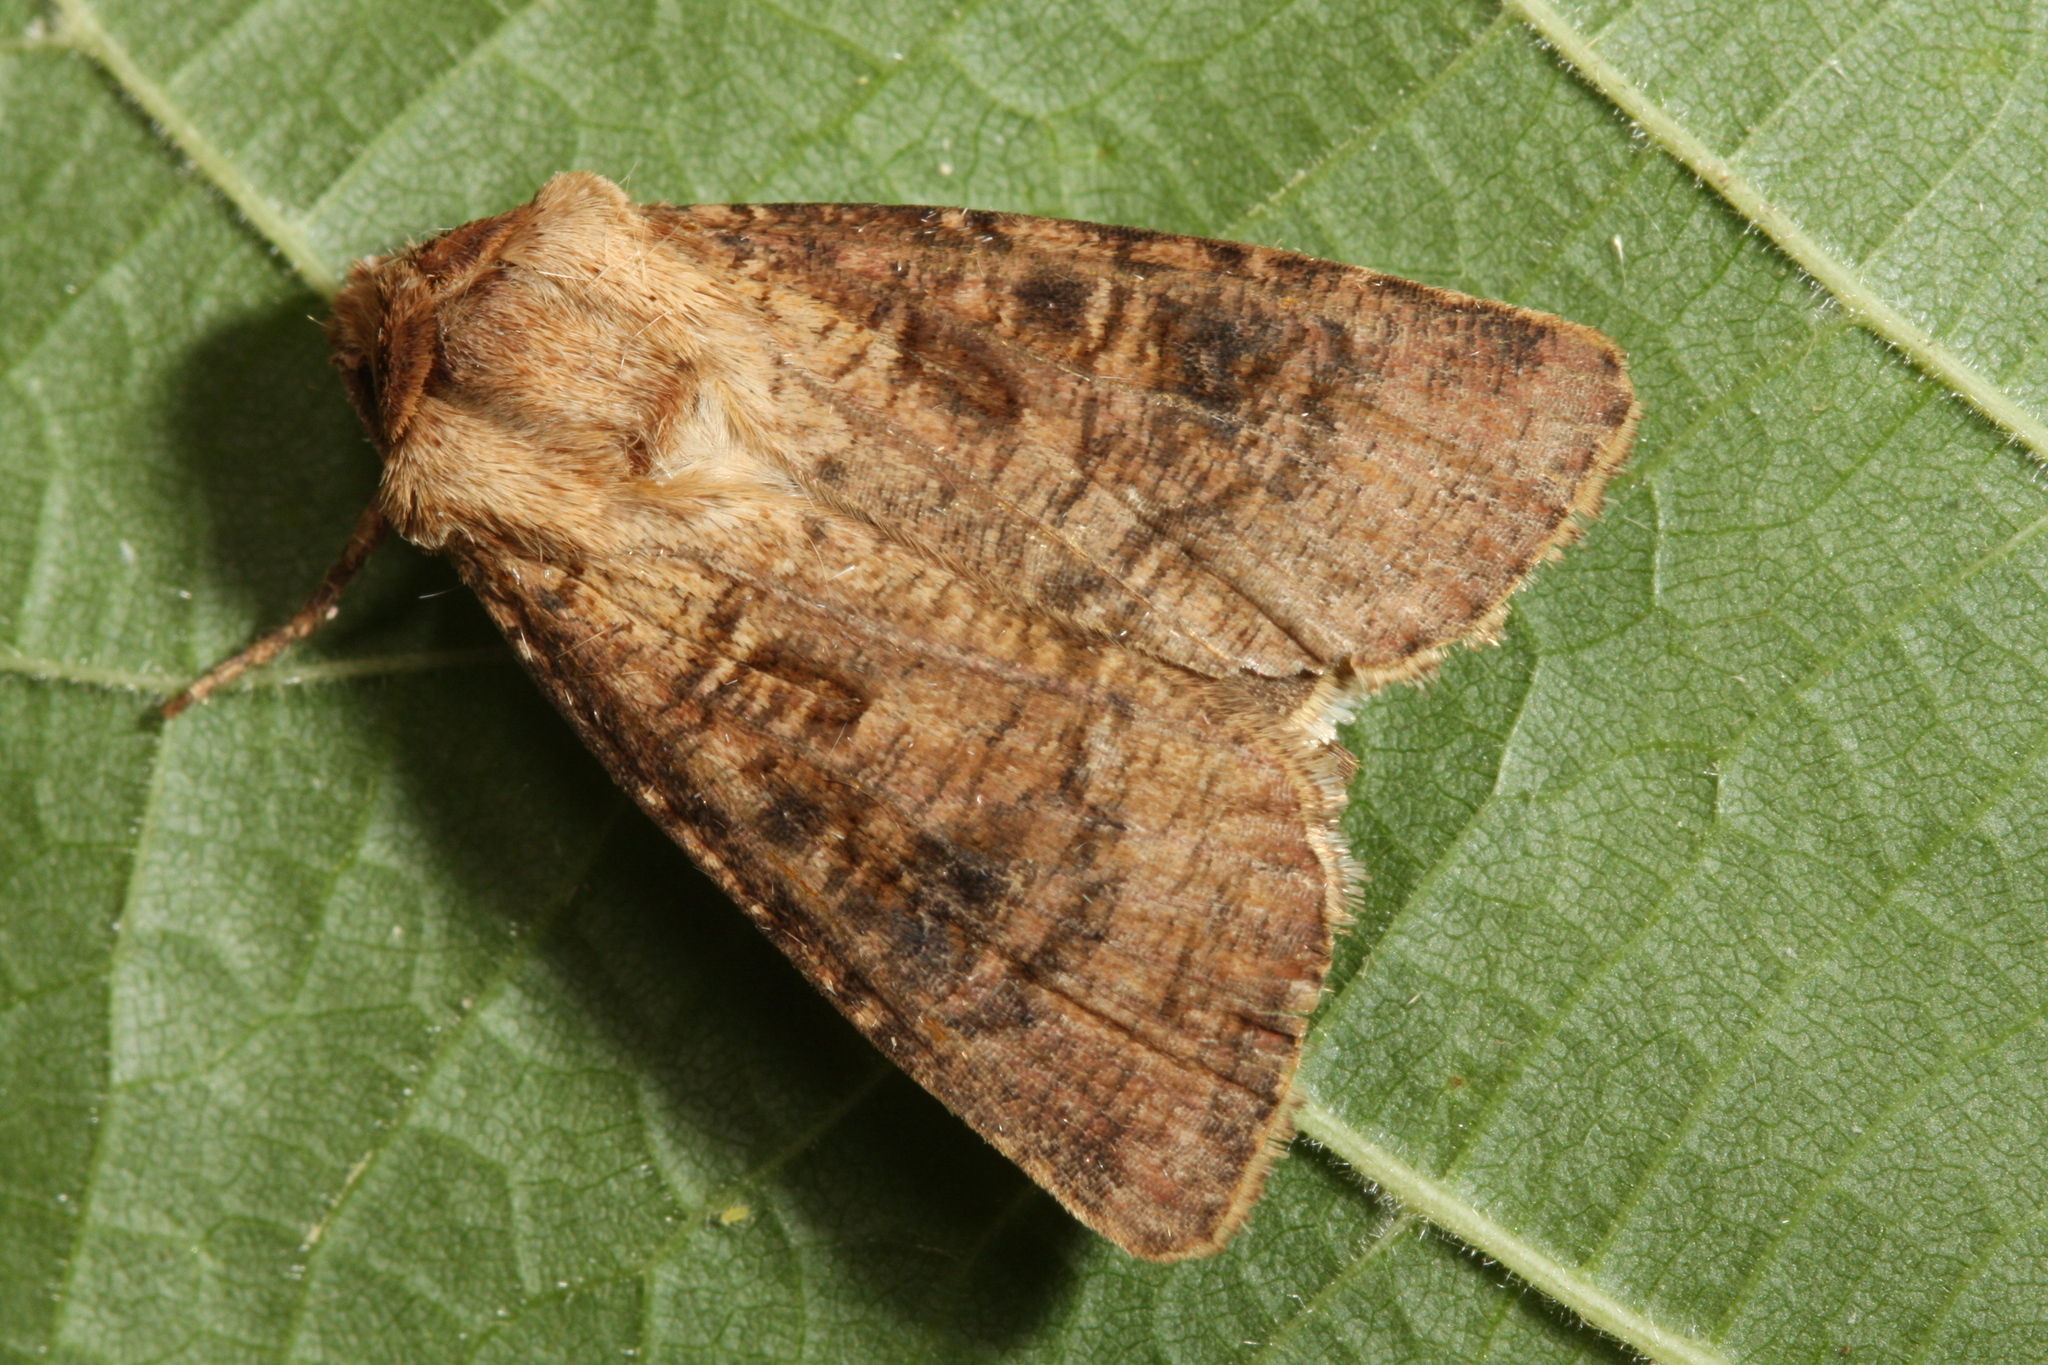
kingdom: Animalia
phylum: Arthropoda
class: Insecta
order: Lepidoptera
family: Noctuidae
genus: Agrotis
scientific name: Agrotis clavis
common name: Heart and club
